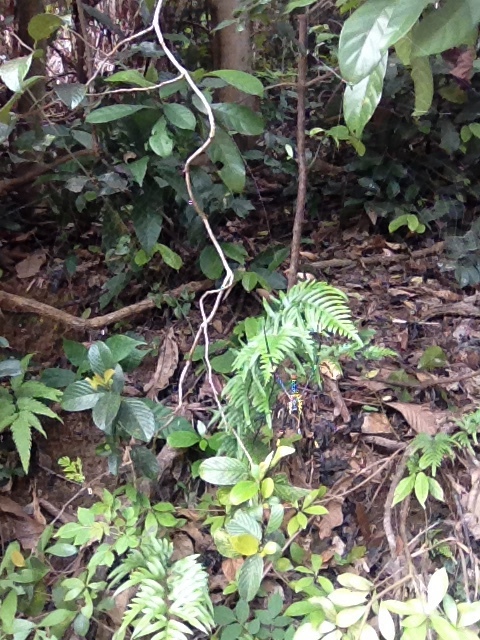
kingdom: Animalia
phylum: Arthropoda
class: Arachnida
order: Araneae
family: Araneidae
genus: Nephila
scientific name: Nephila pilipes
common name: Giant golden orb weaver
